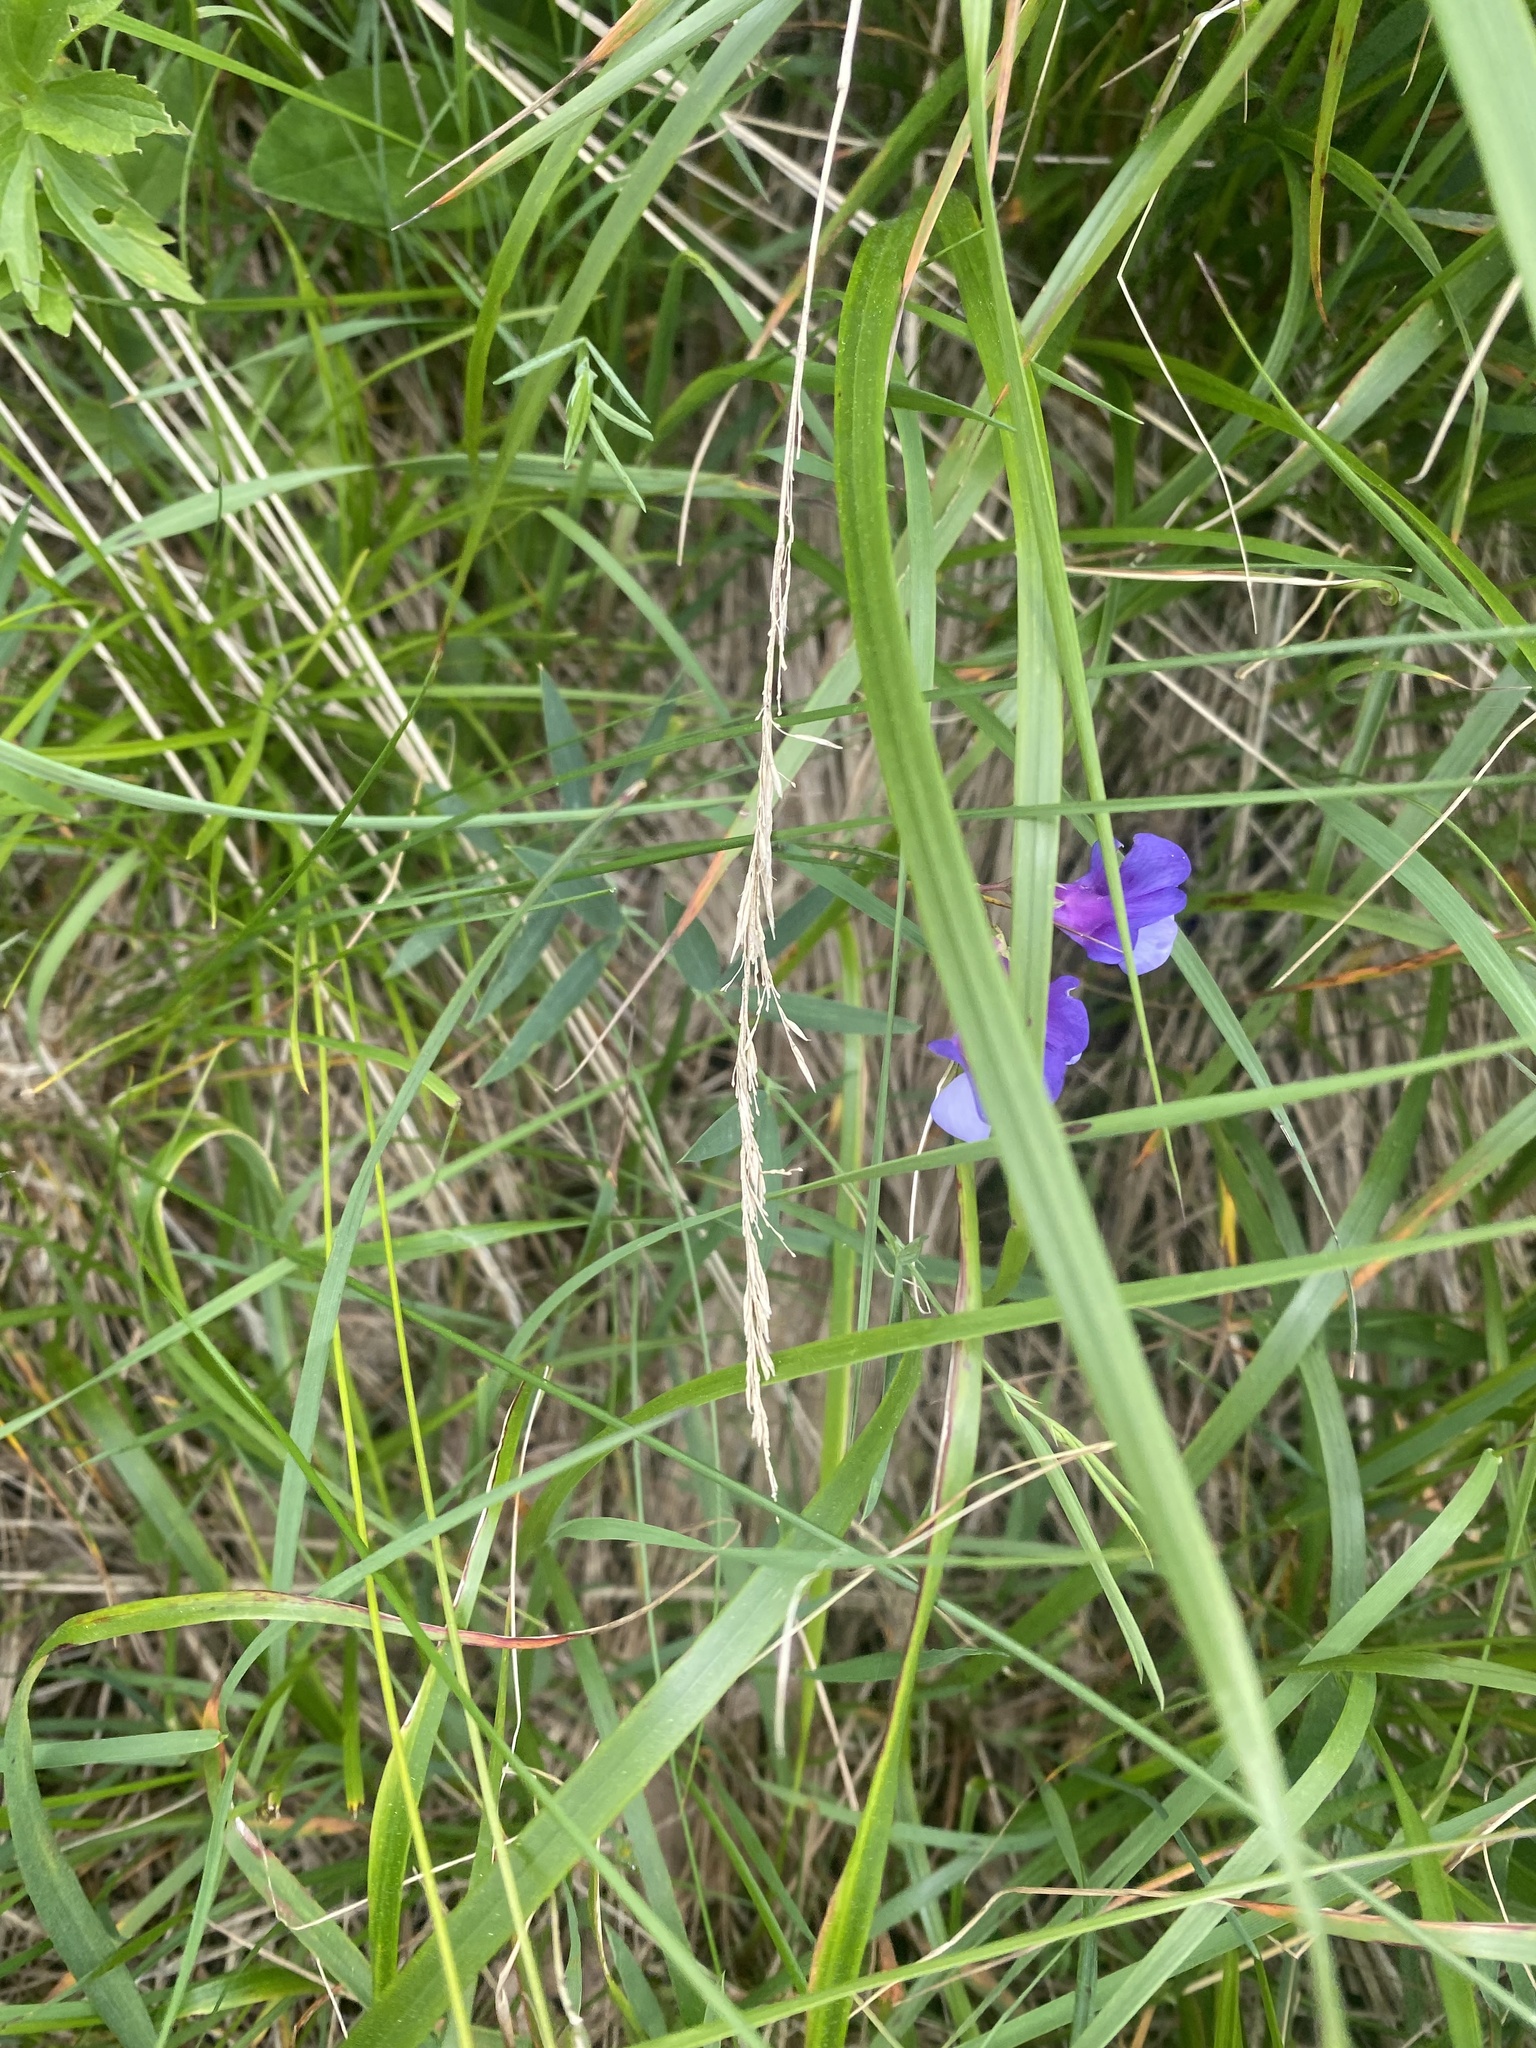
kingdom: Plantae
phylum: Tracheophyta
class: Magnoliopsida
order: Fabales
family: Fabaceae
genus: Lathyrus
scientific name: Lathyrus cyaneus
